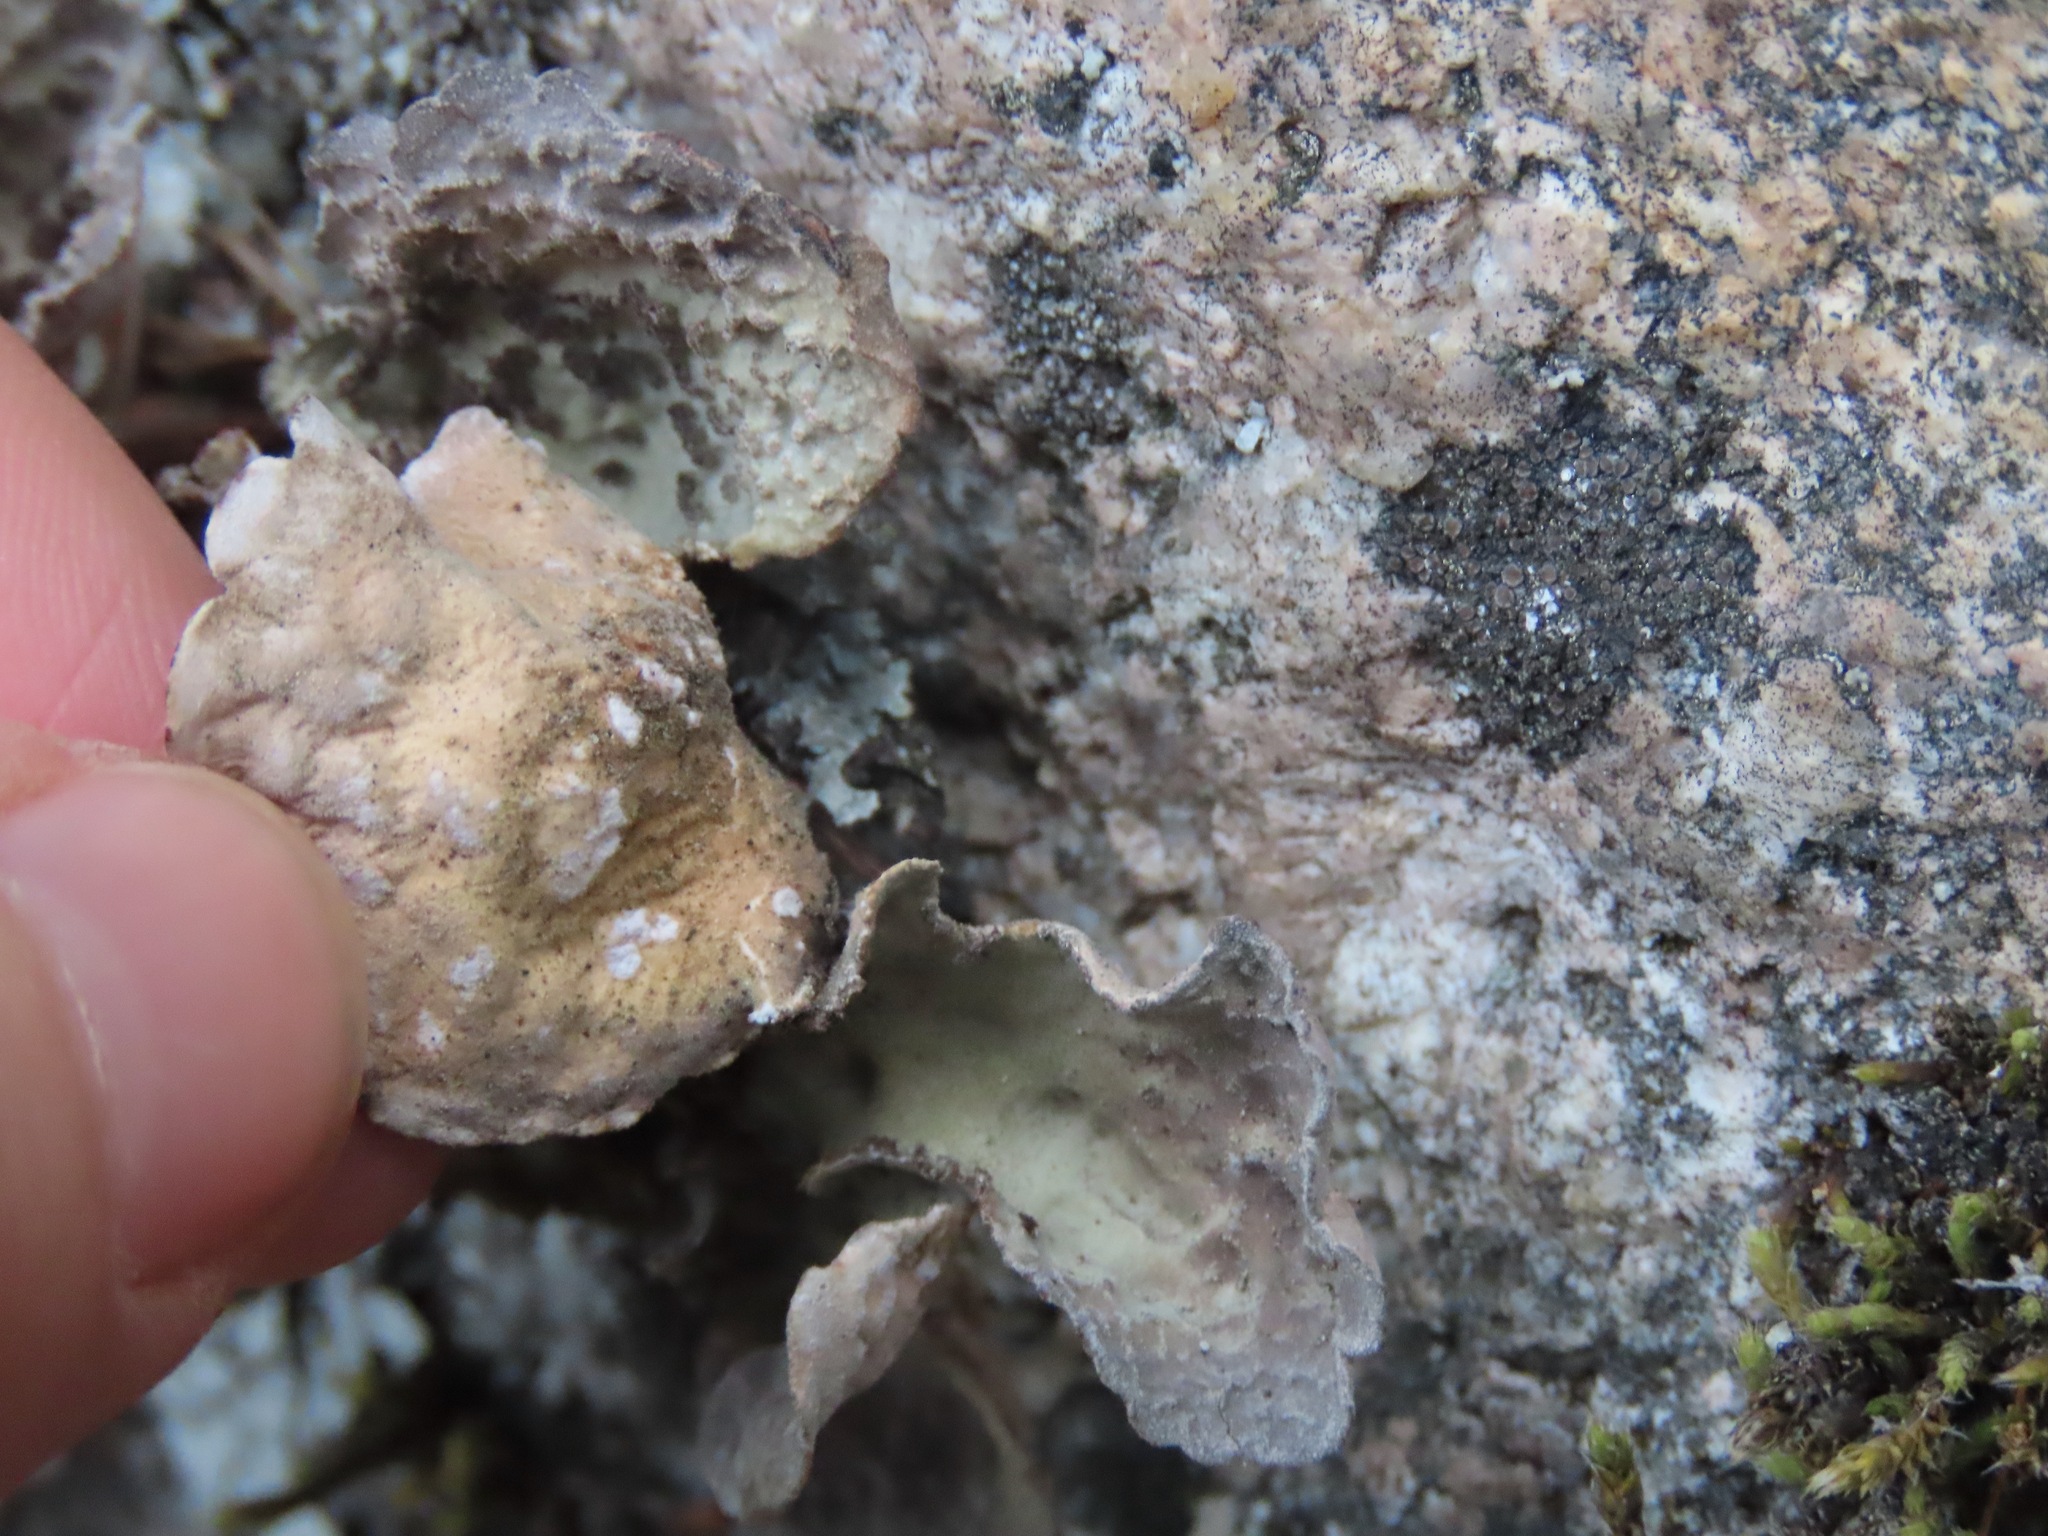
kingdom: Fungi
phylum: Ascomycota
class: Lecanoromycetes
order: Peltigerales
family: Lobariaceae
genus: Lobarina
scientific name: Lobarina scrobiculata
